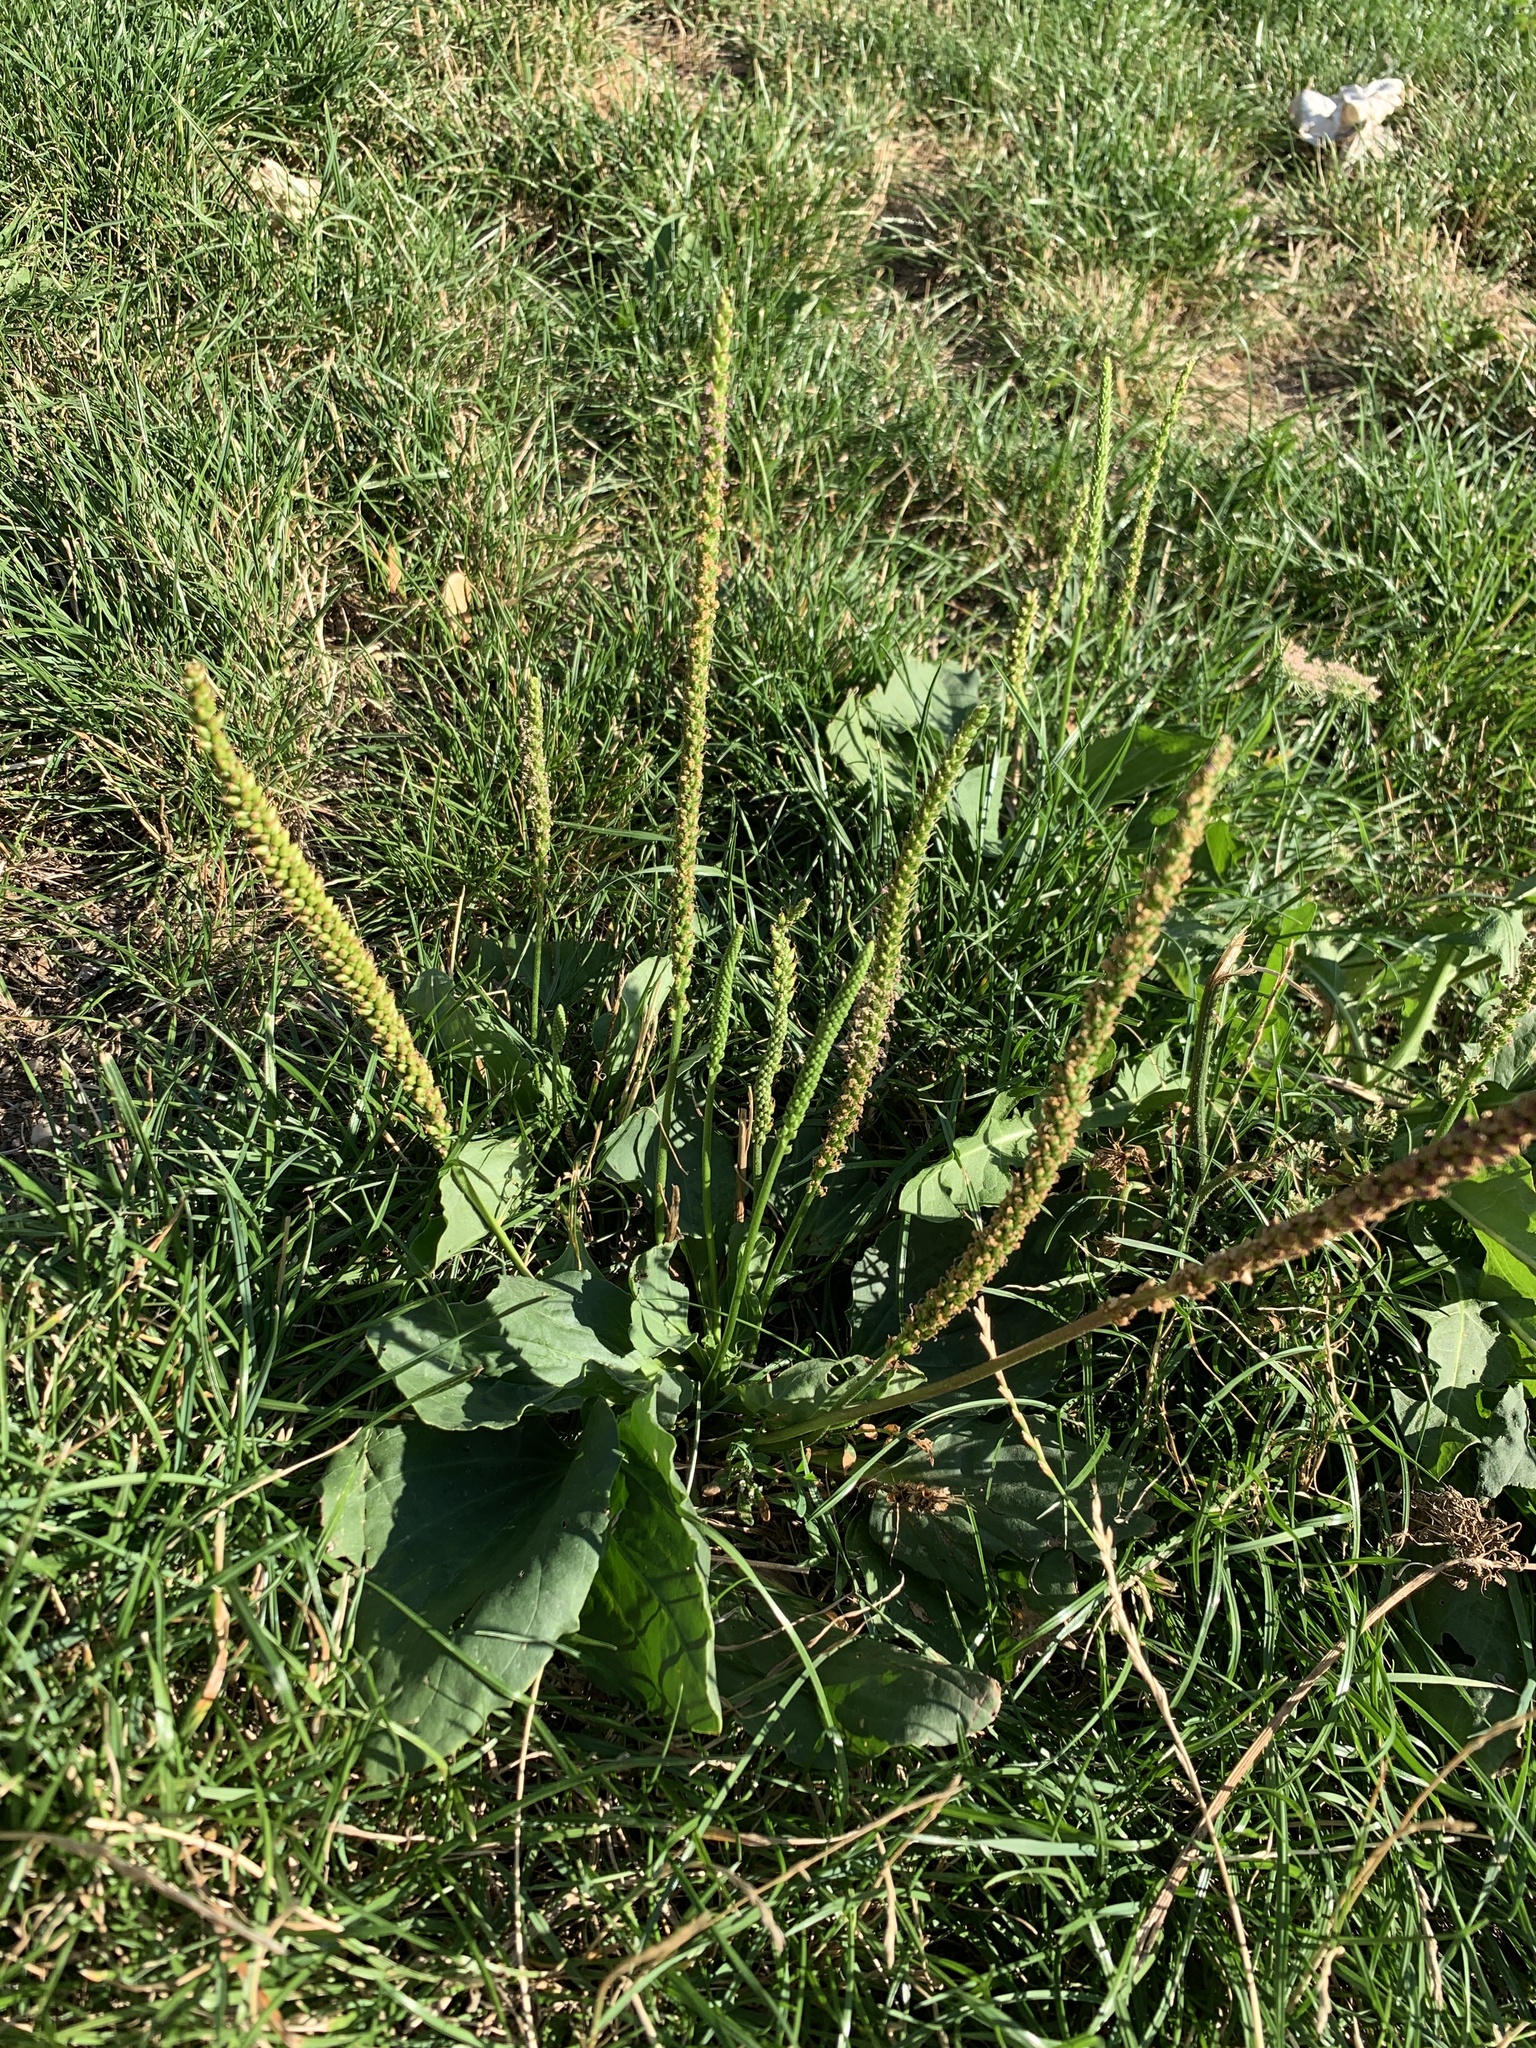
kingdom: Plantae
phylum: Tracheophyta
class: Magnoliopsida
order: Lamiales
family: Plantaginaceae
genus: Plantago
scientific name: Plantago major
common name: Common plantain
